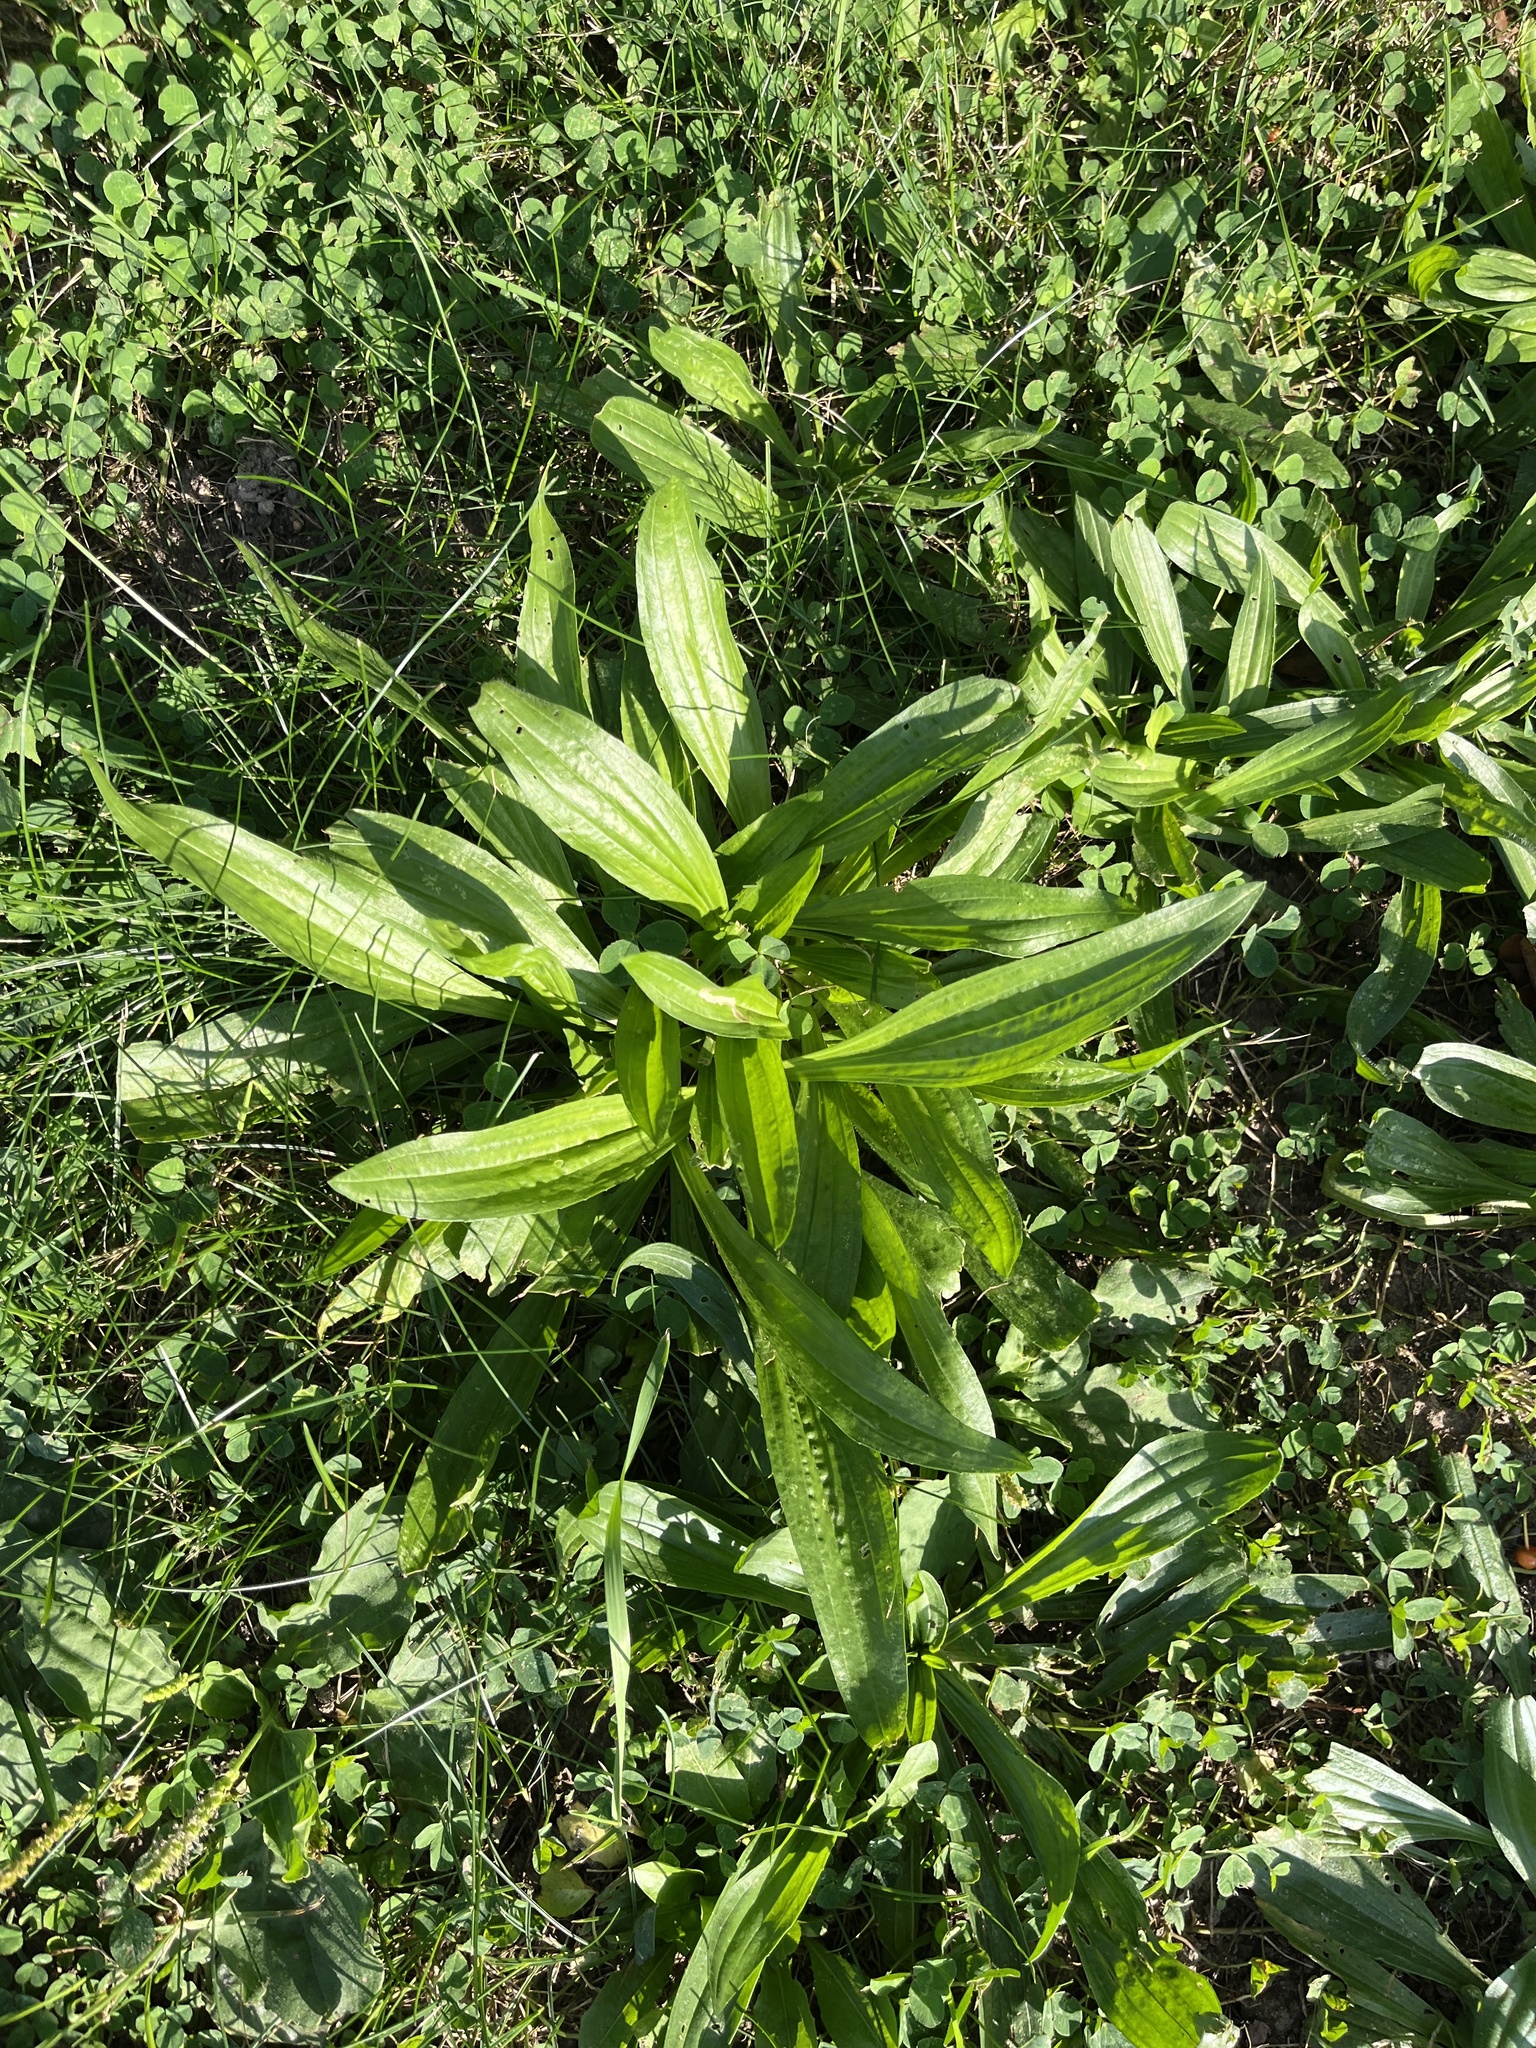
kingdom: Plantae
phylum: Tracheophyta
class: Magnoliopsida
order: Lamiales
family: Plantaginaceae
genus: Plantago
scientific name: Plantago lanceolata
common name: Ribwort plantain
